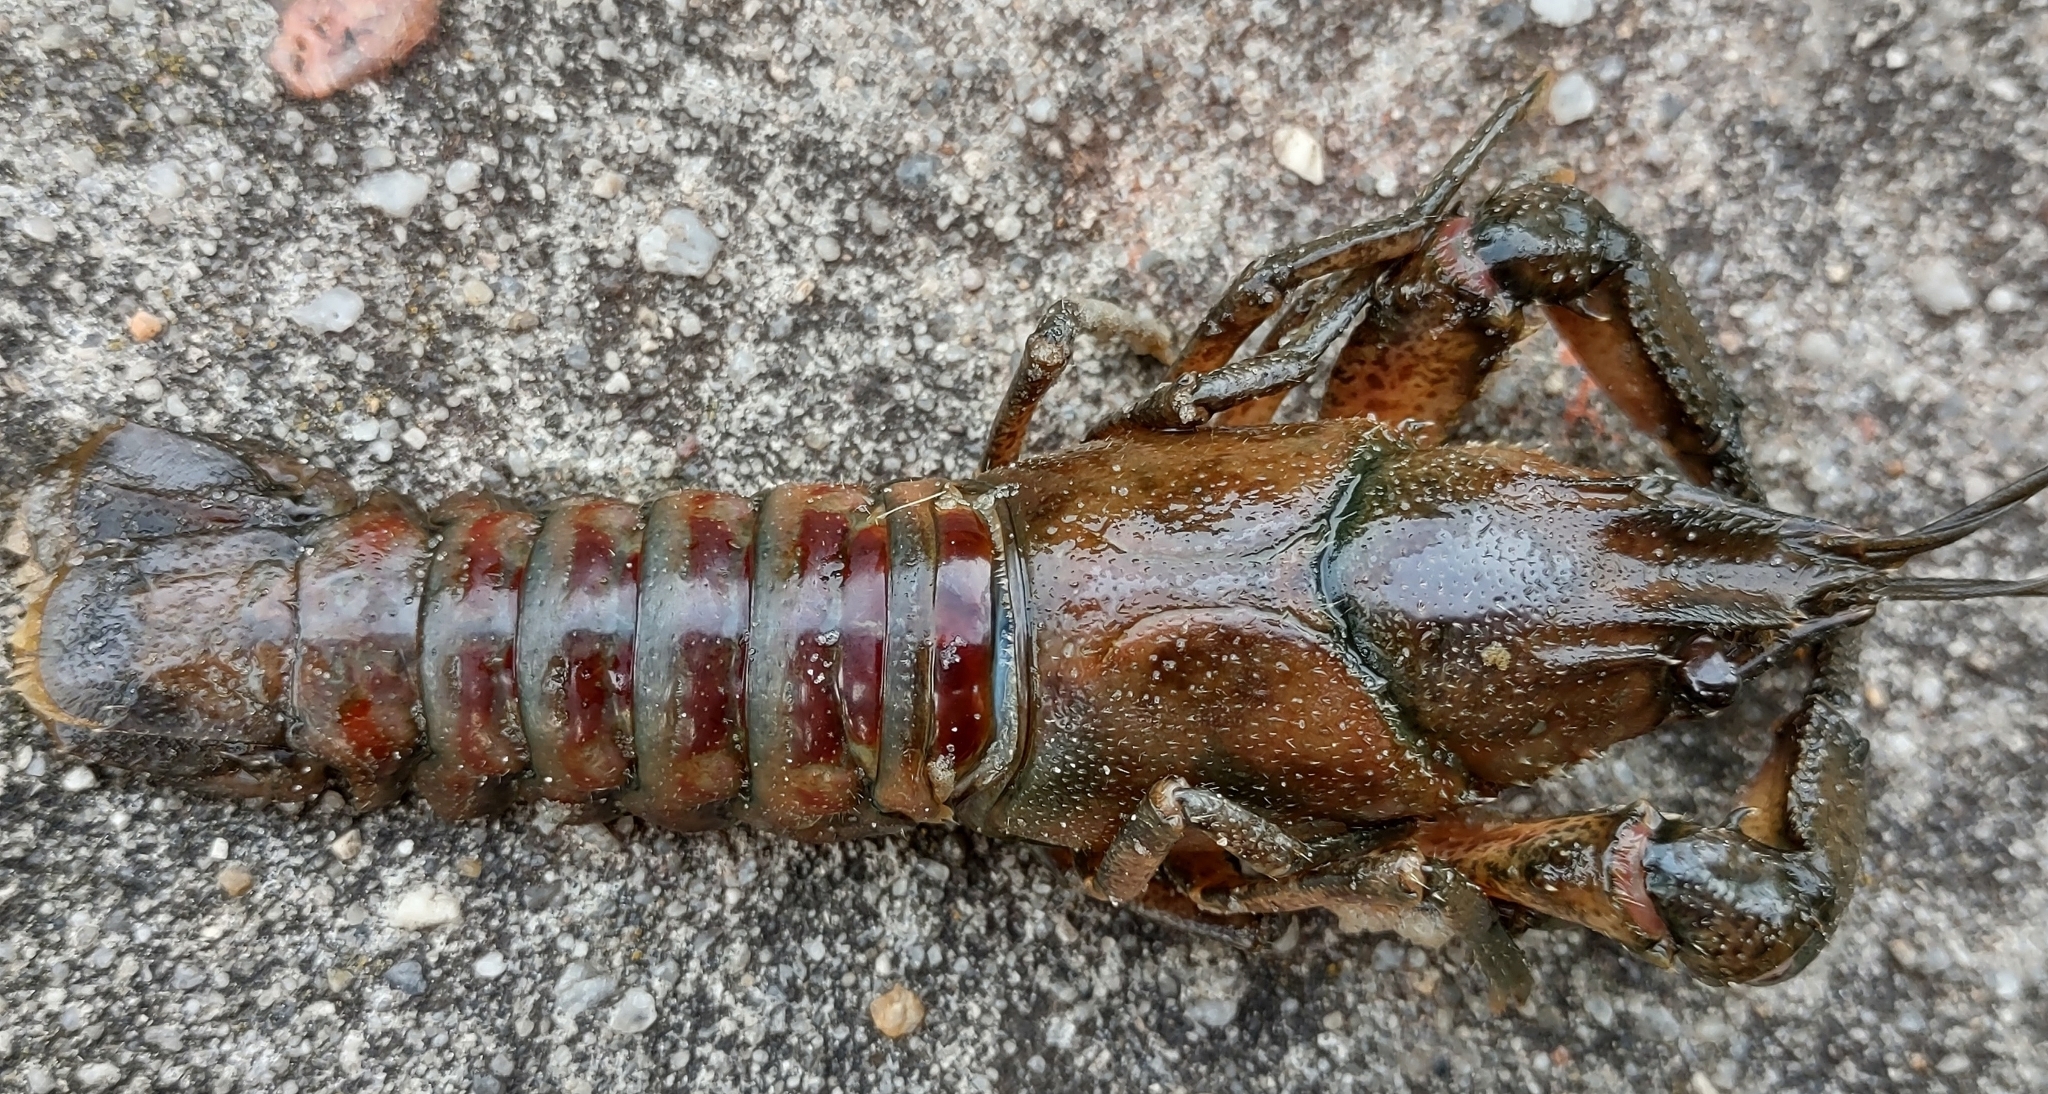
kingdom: Animalia
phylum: Arthropoda
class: Malacostraca
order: Decapoda
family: Cambaridae
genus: Faxonius
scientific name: Faxonius limosus
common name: American crayfish
